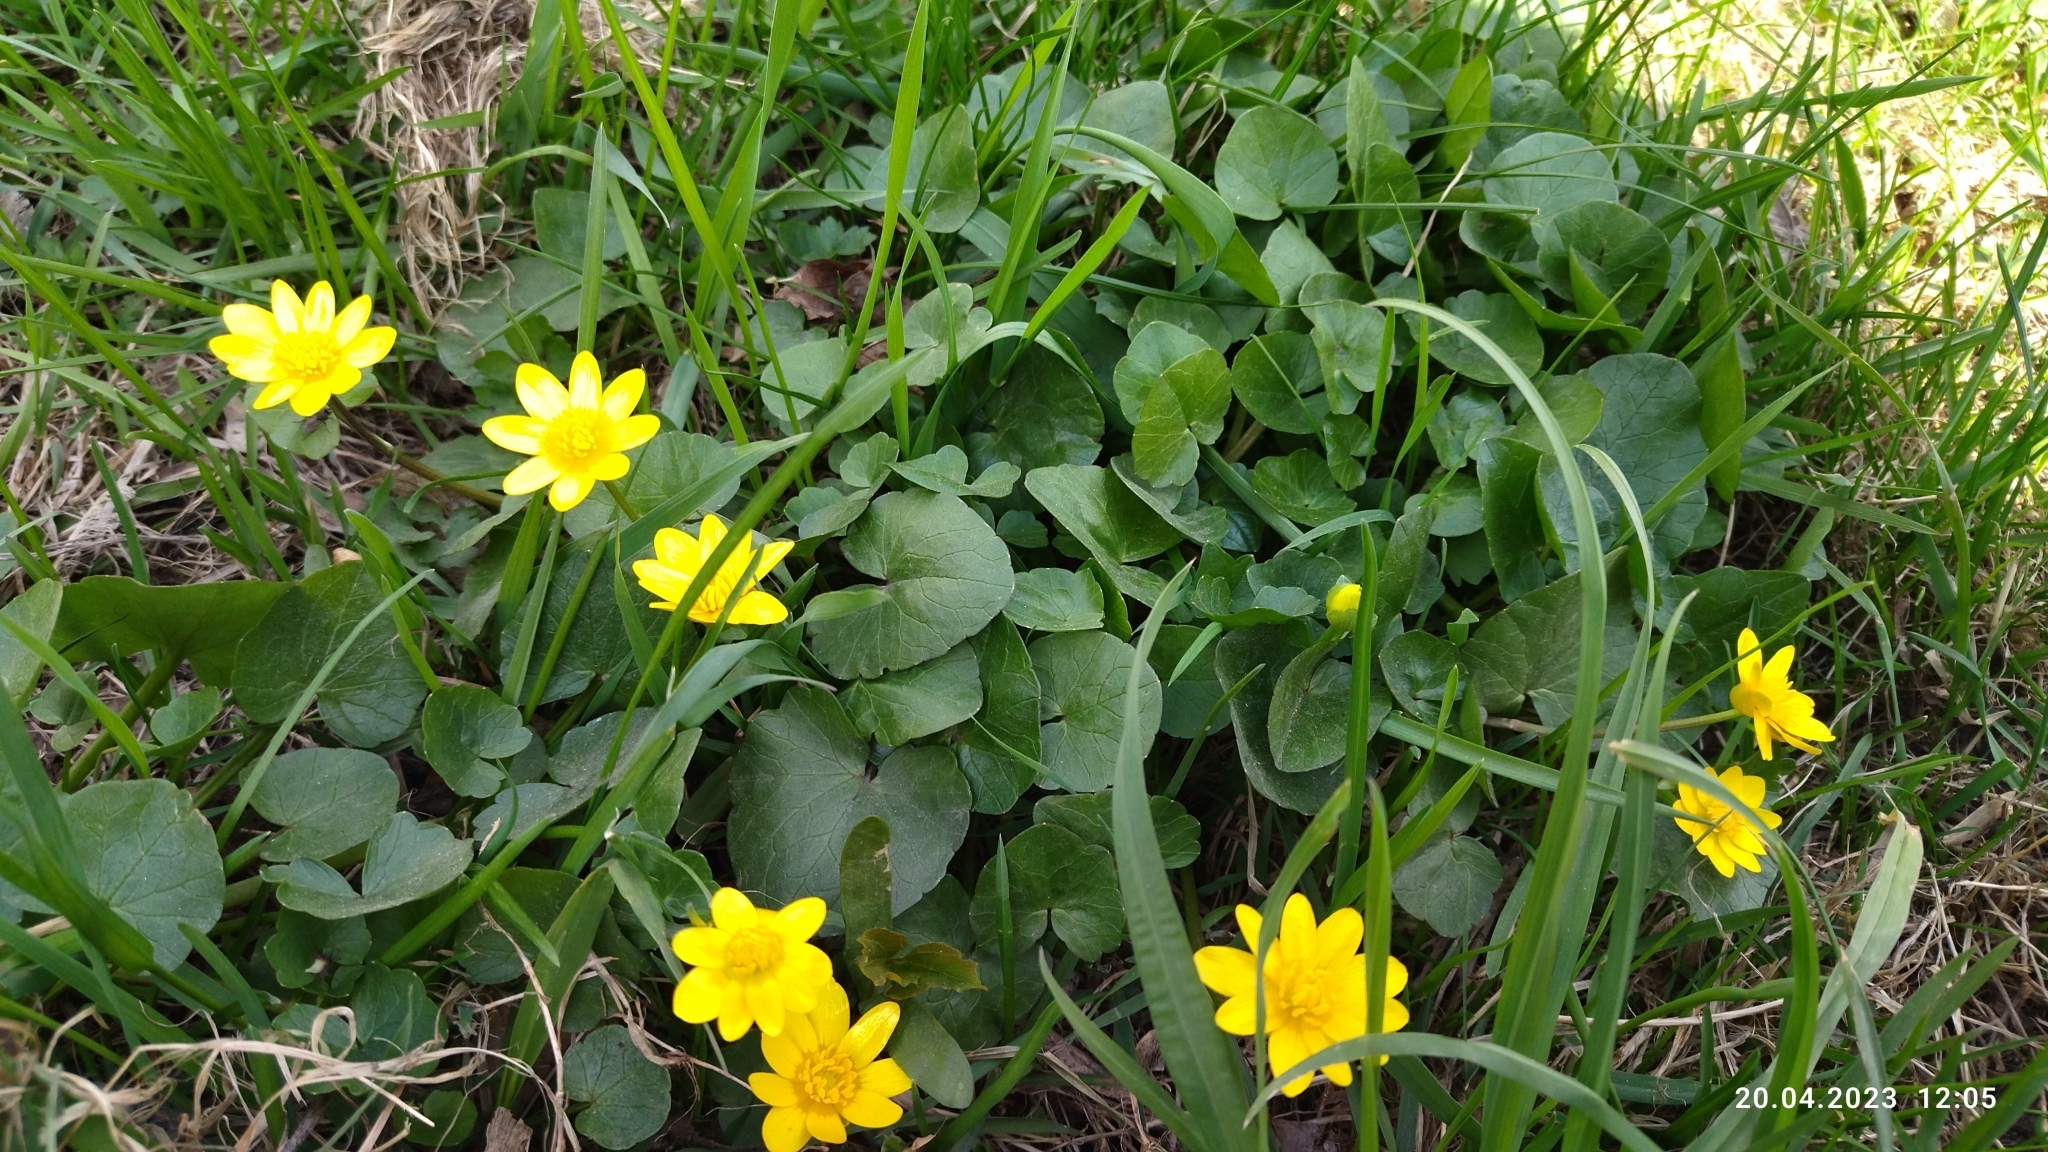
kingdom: Plantae
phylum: Tracheophyta
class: Magnoliopsida
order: Ranunculales
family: Ranunculaceae
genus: Ficaria
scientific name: Ficaria verna
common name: Lesser celandine
